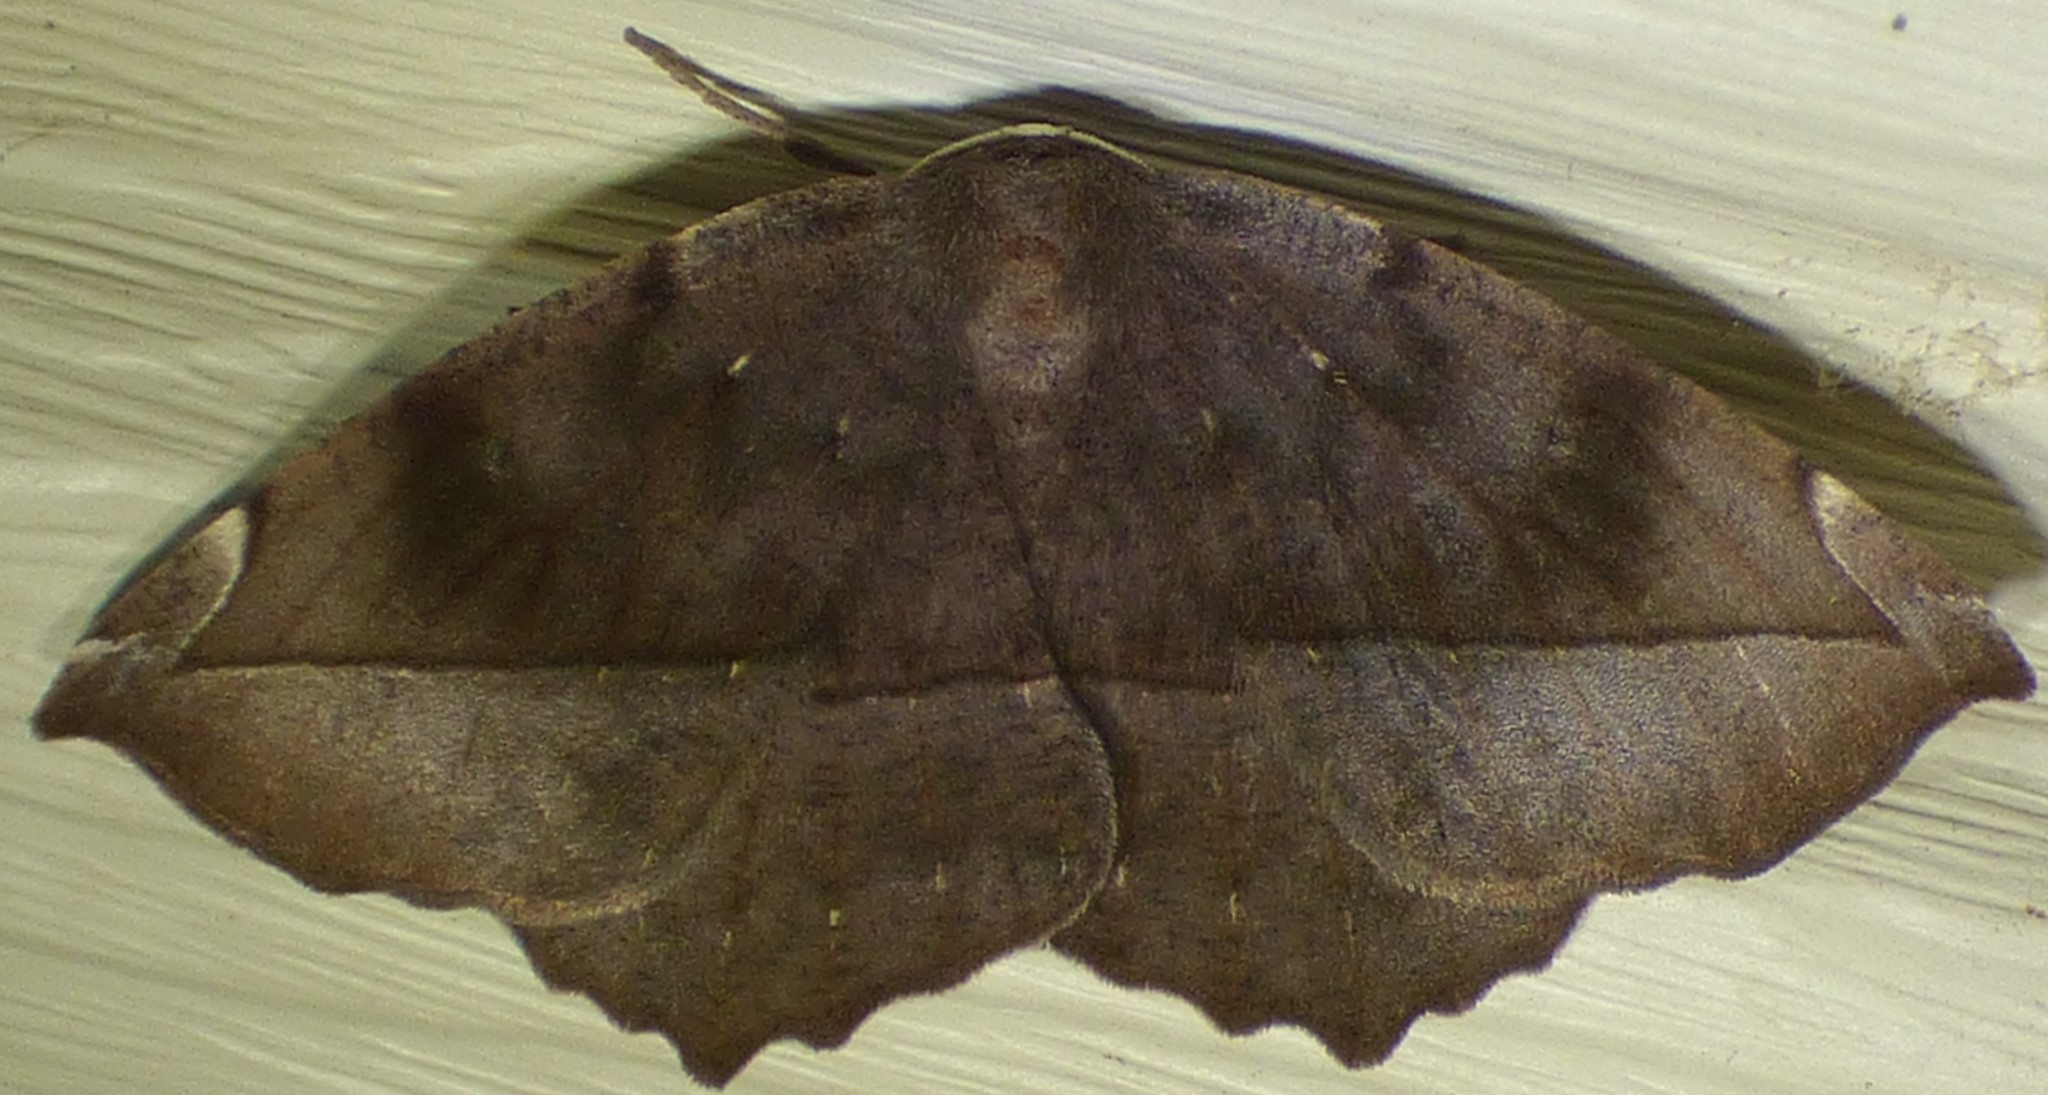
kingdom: Animalia
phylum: Arthropoda
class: Insecta
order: Lepidoptera
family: Geometridae
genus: Eutrapela
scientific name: Eutrapela clemataria
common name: Curved-toothed geometer
